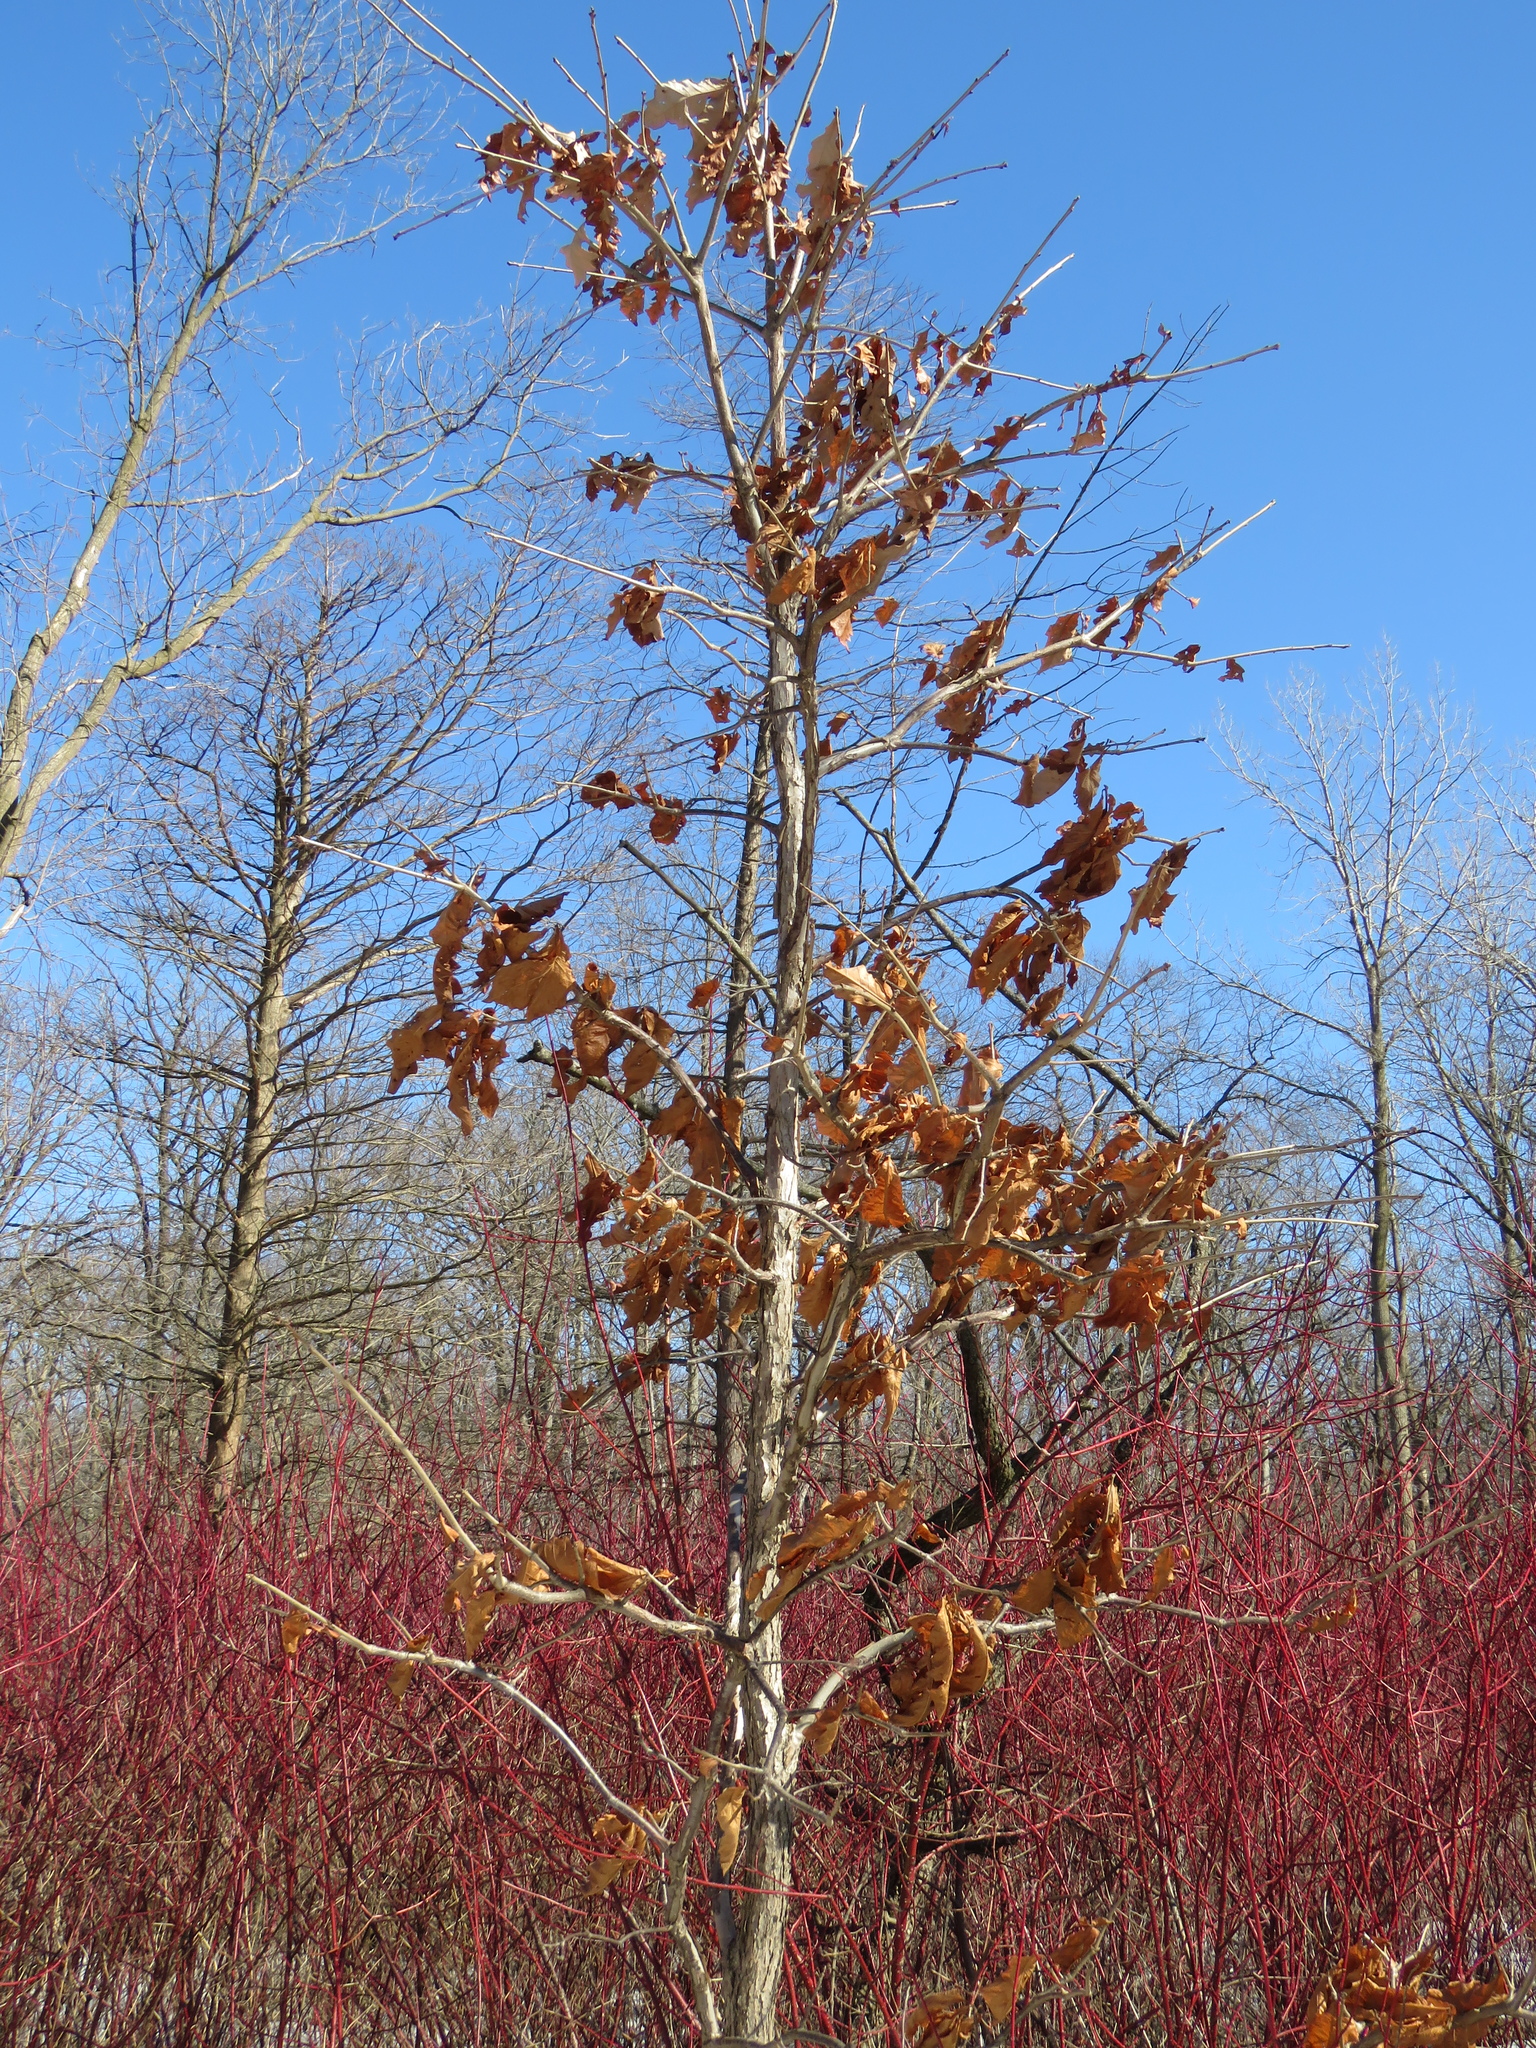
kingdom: Plantae
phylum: Tracheophyta
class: Magnoliopsida
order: Fagales
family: Fagaceae
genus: Quercus
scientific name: Quercus bicolor
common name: Swamp white oak
